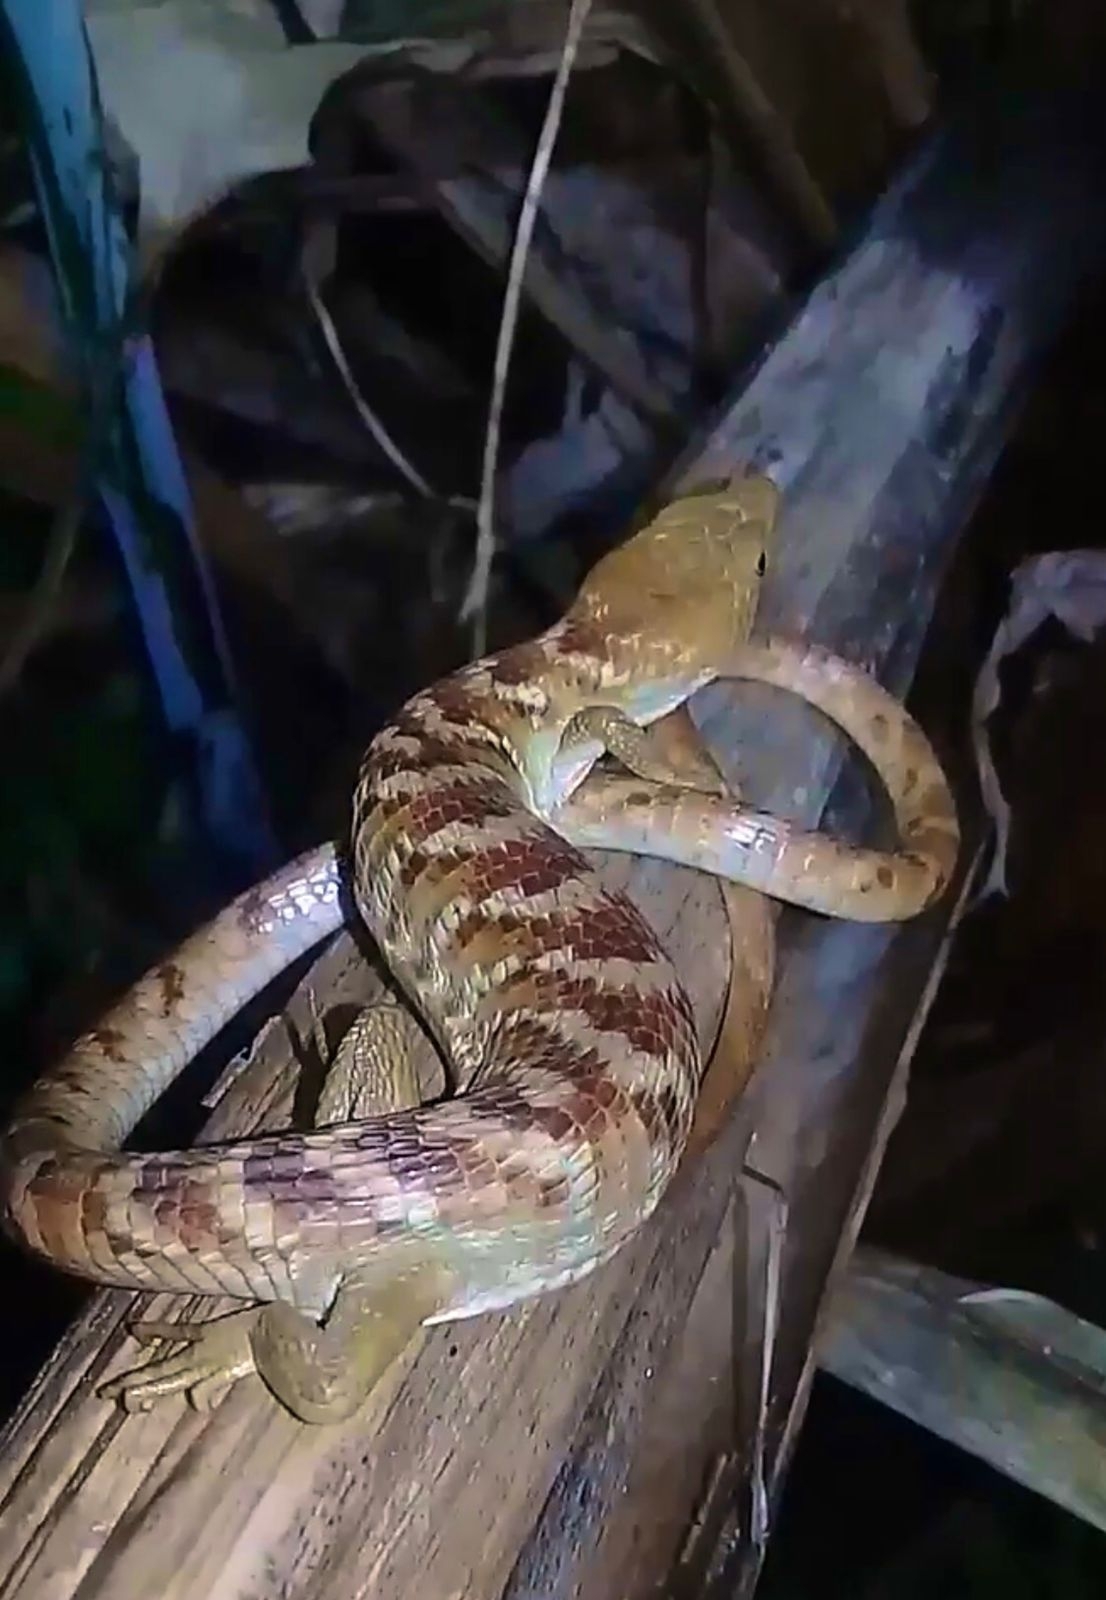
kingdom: Animalia
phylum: Chordata
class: Squamata
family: Anguidae
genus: Gerrhonotus
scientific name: Gerrhonotus ophiurus
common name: Snake lizard
